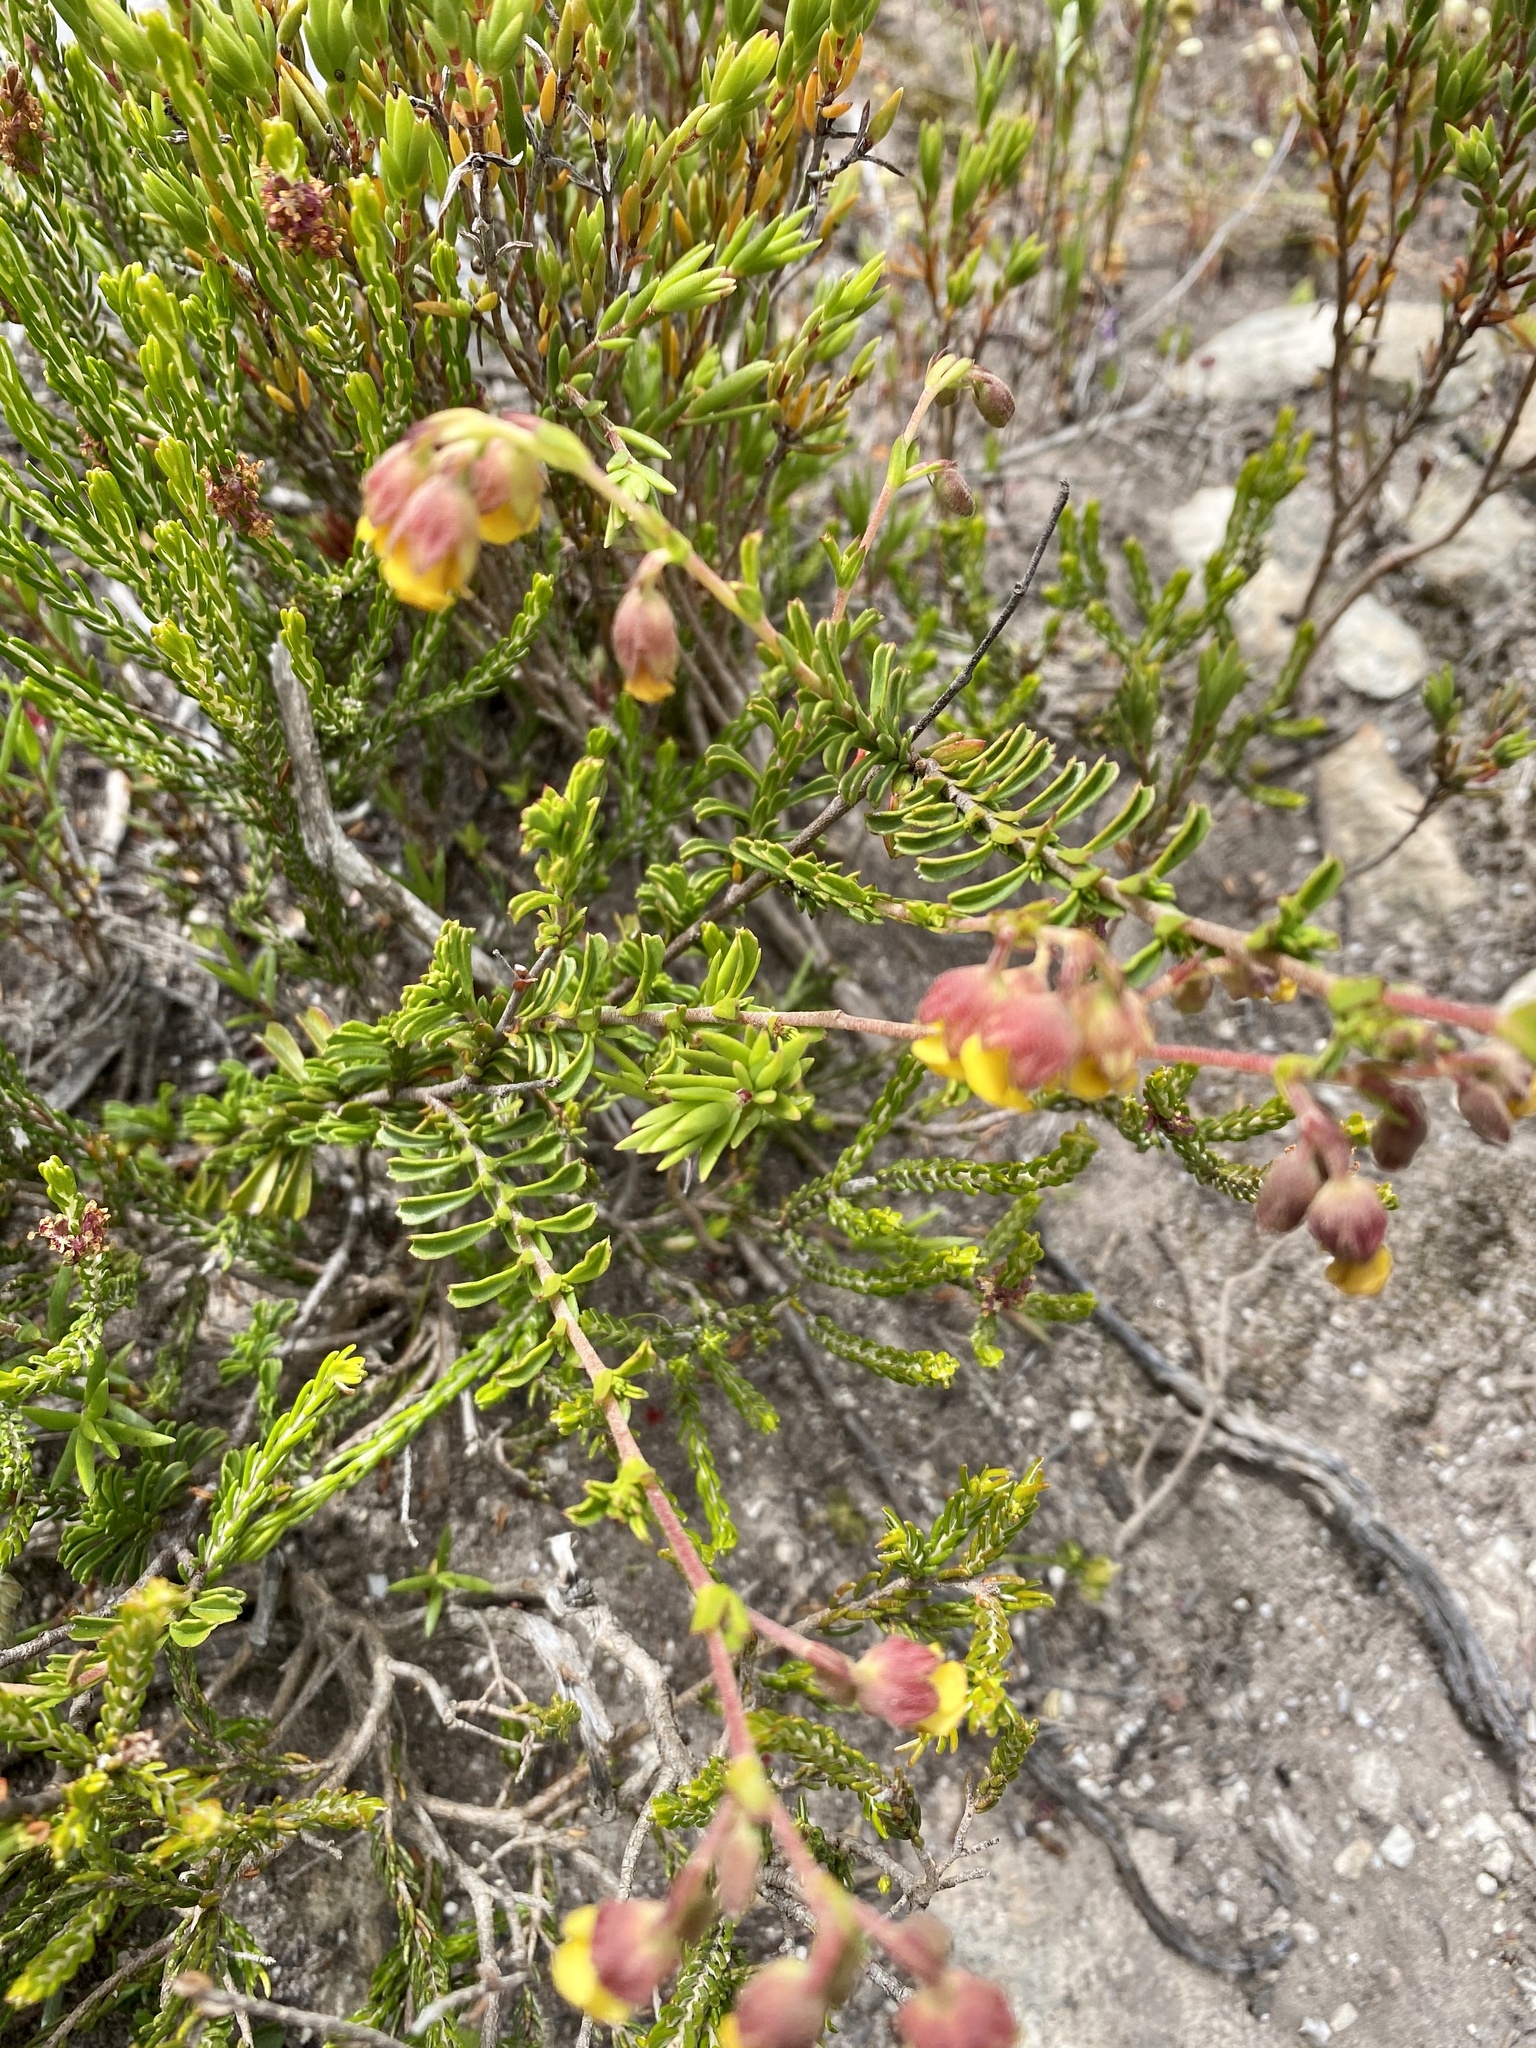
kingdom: Plantae
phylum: Tracheophyta
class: Magnoliopsida
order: Malvales
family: Malvaceae
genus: Hermannia
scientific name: Hermannia concinnifolia
